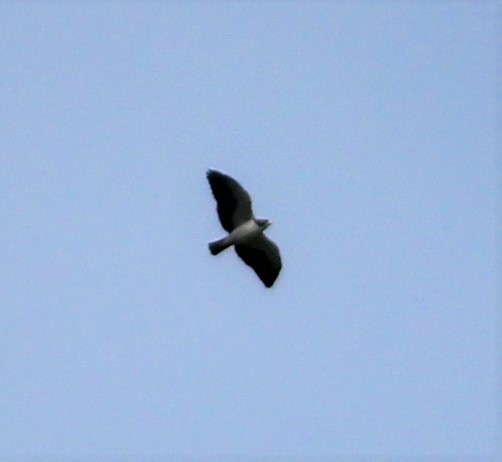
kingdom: Animalia
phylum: Chordata
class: Aves
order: Accipitriformes
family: Accipitridae
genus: Buteo
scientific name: Buteo brachyurus
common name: Short-tailed hawk
